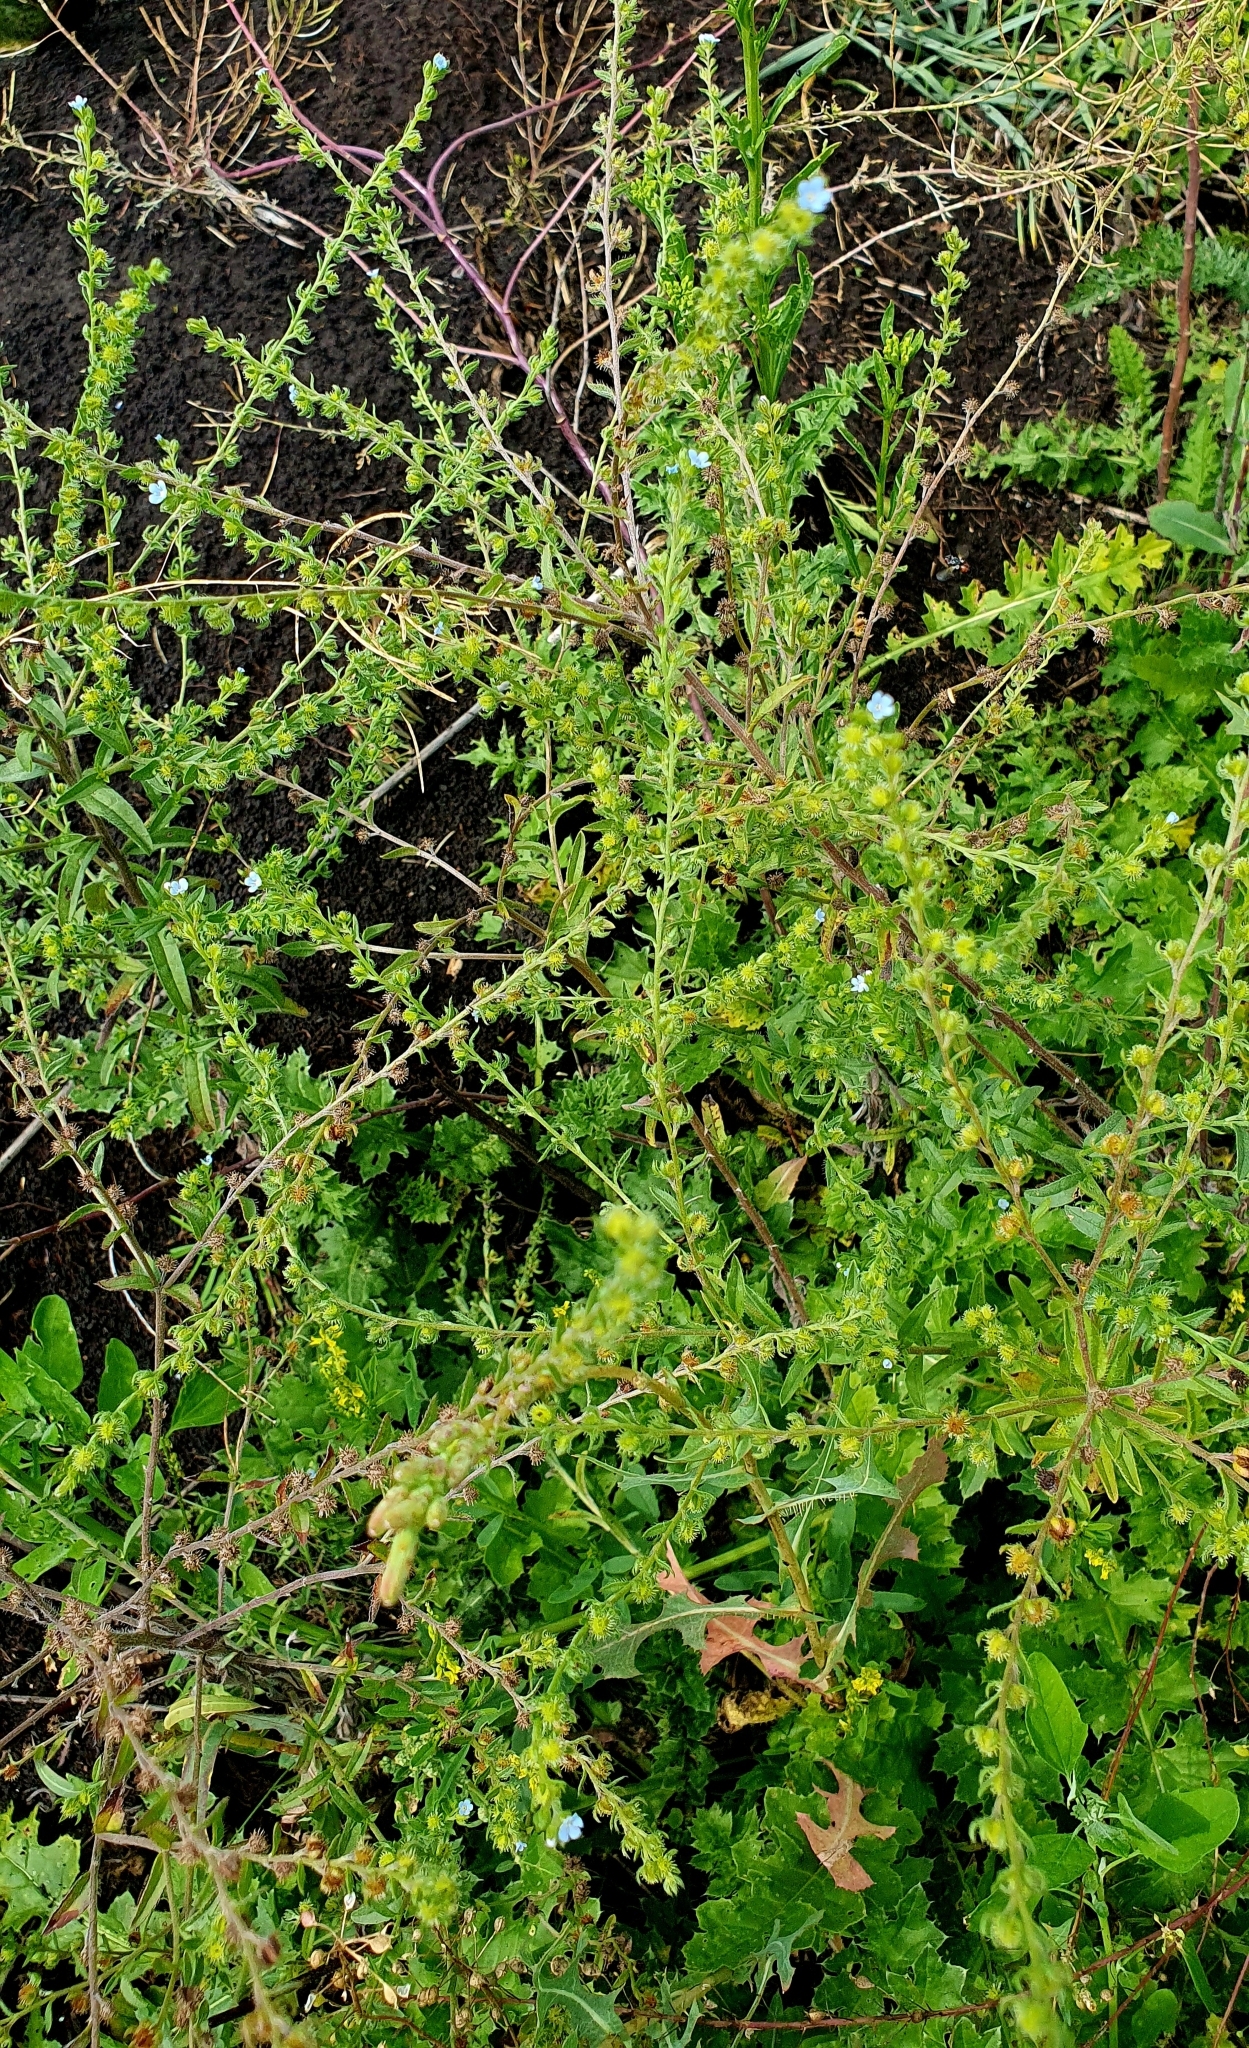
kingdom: Plantae
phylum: Tracheophyta
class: Magnoliopsida
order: Boraginales
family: Boraginaceae
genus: Lappula
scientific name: Lappula squarrosa
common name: European stickseed
